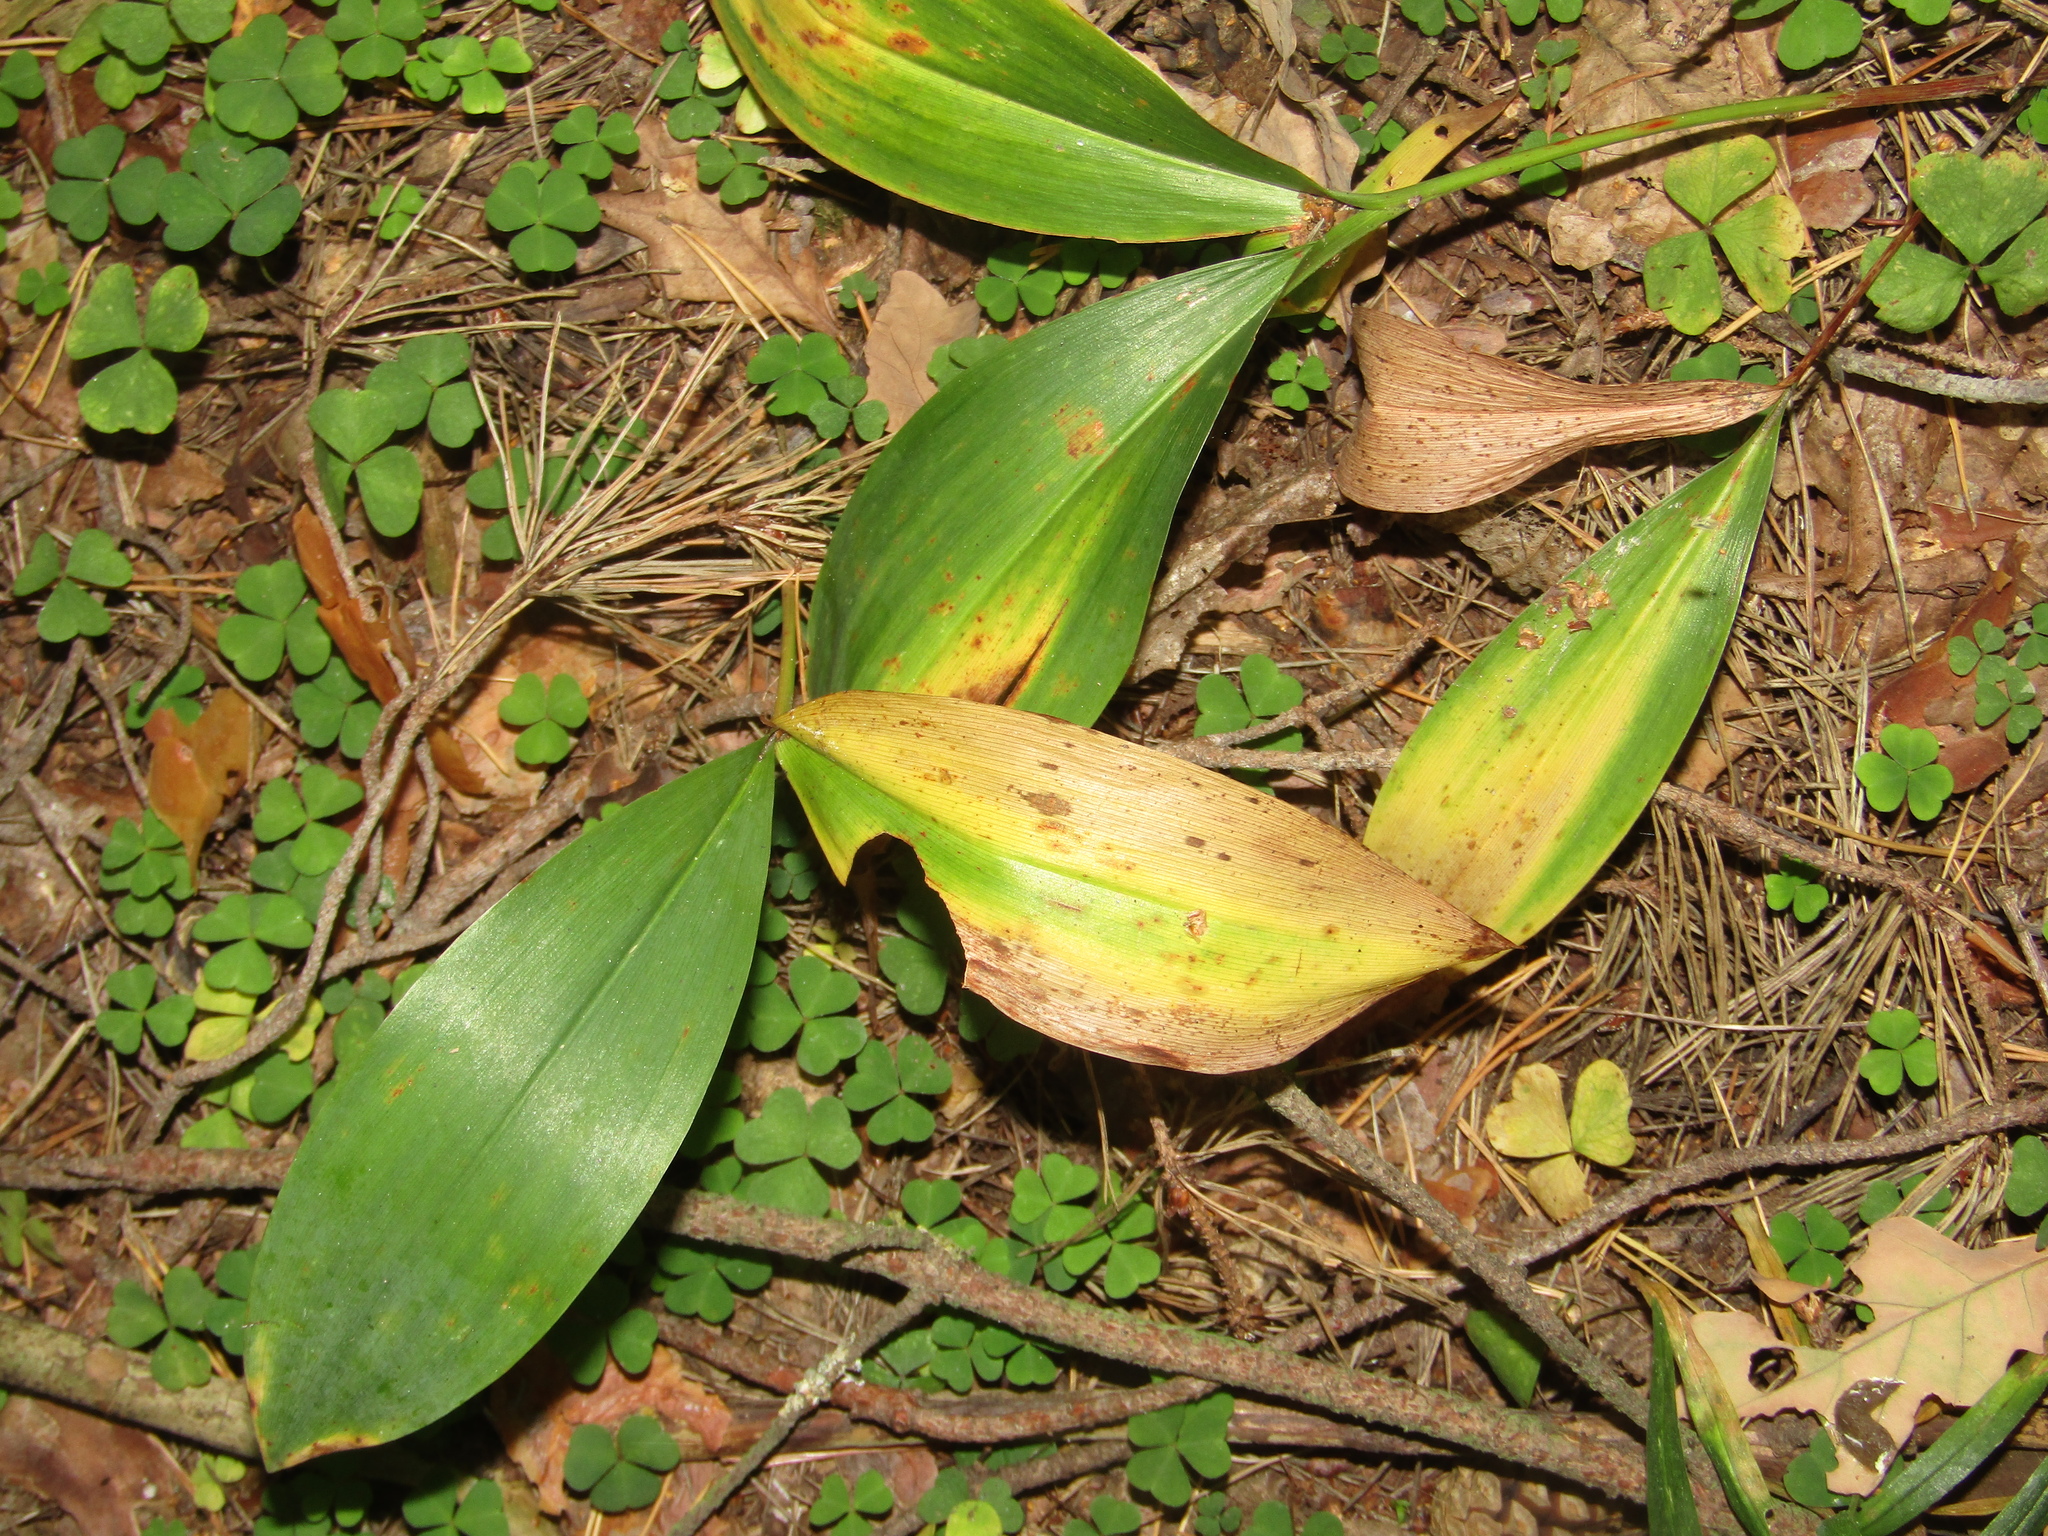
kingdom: Plantae
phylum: Tracheophyta
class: Liliopsida
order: Asparagales
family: Asparagaceae
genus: Convallaria
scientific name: Convallaria majalis
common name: Lily-of-the-valley
